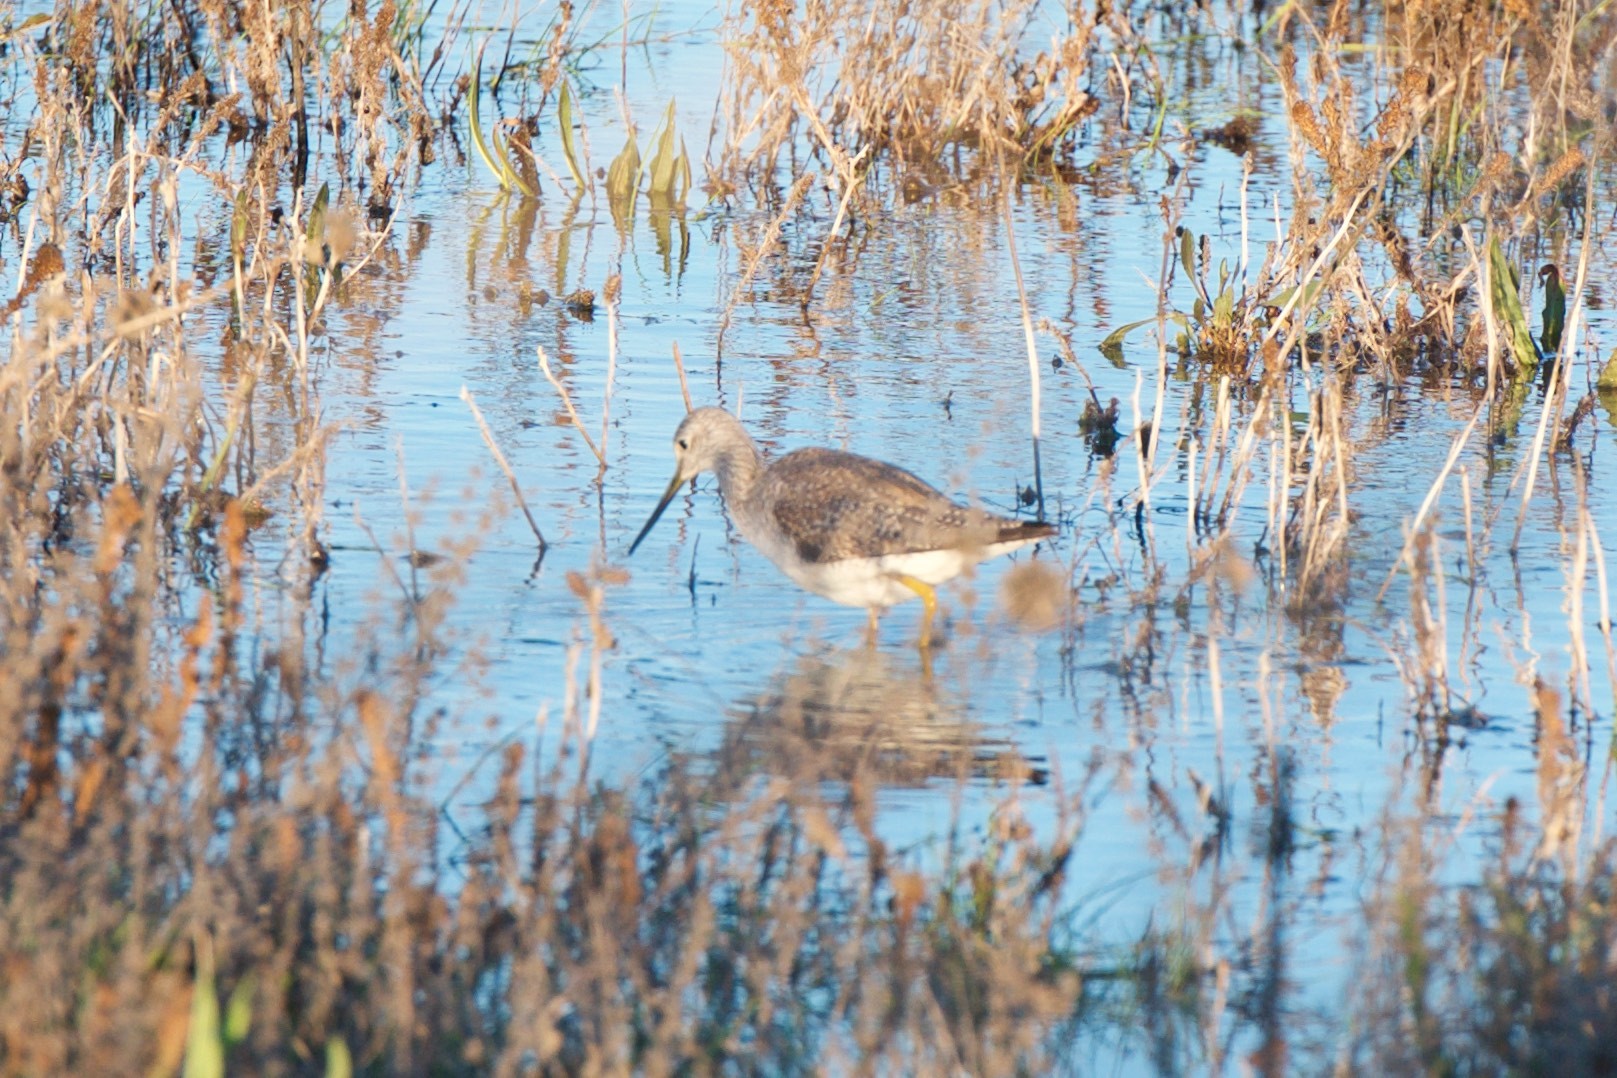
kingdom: Animalia
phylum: Chordata
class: Aves
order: Charadriiformes
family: Scolopacidae
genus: Tringa
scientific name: Tringa melanoleuca
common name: Greater yellowlegs
